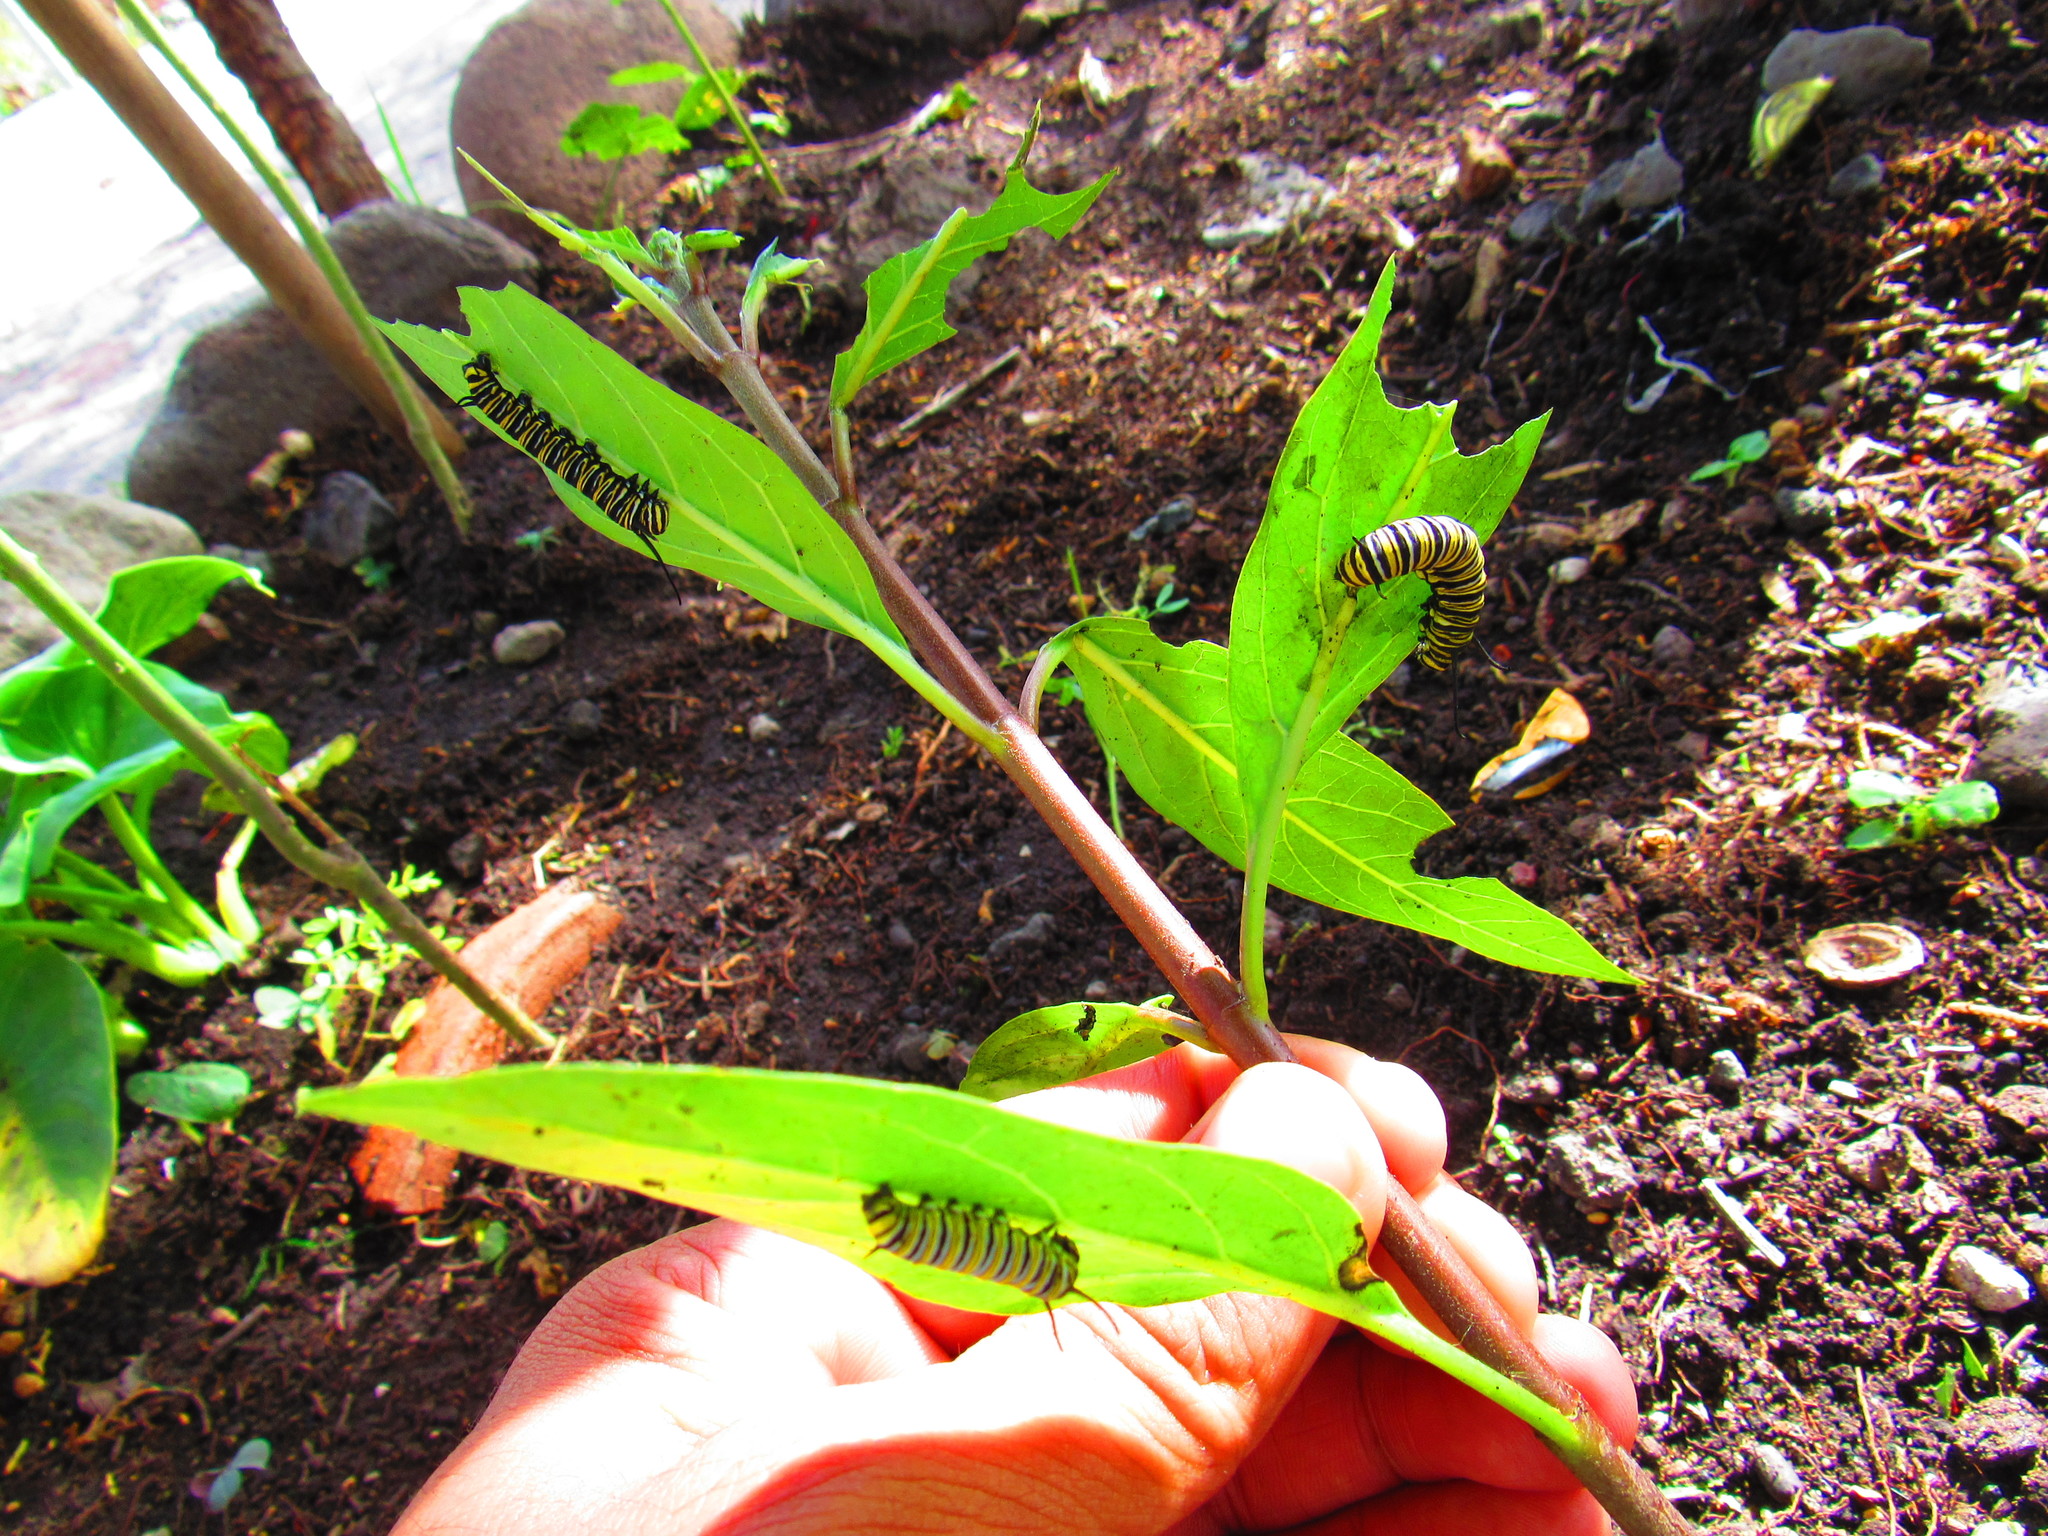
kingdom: Animalia
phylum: Arthropoda
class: Insecta
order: Lepidoptera
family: Nymphalidae
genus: Danaus
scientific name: Danaus plexippus
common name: Monarch
